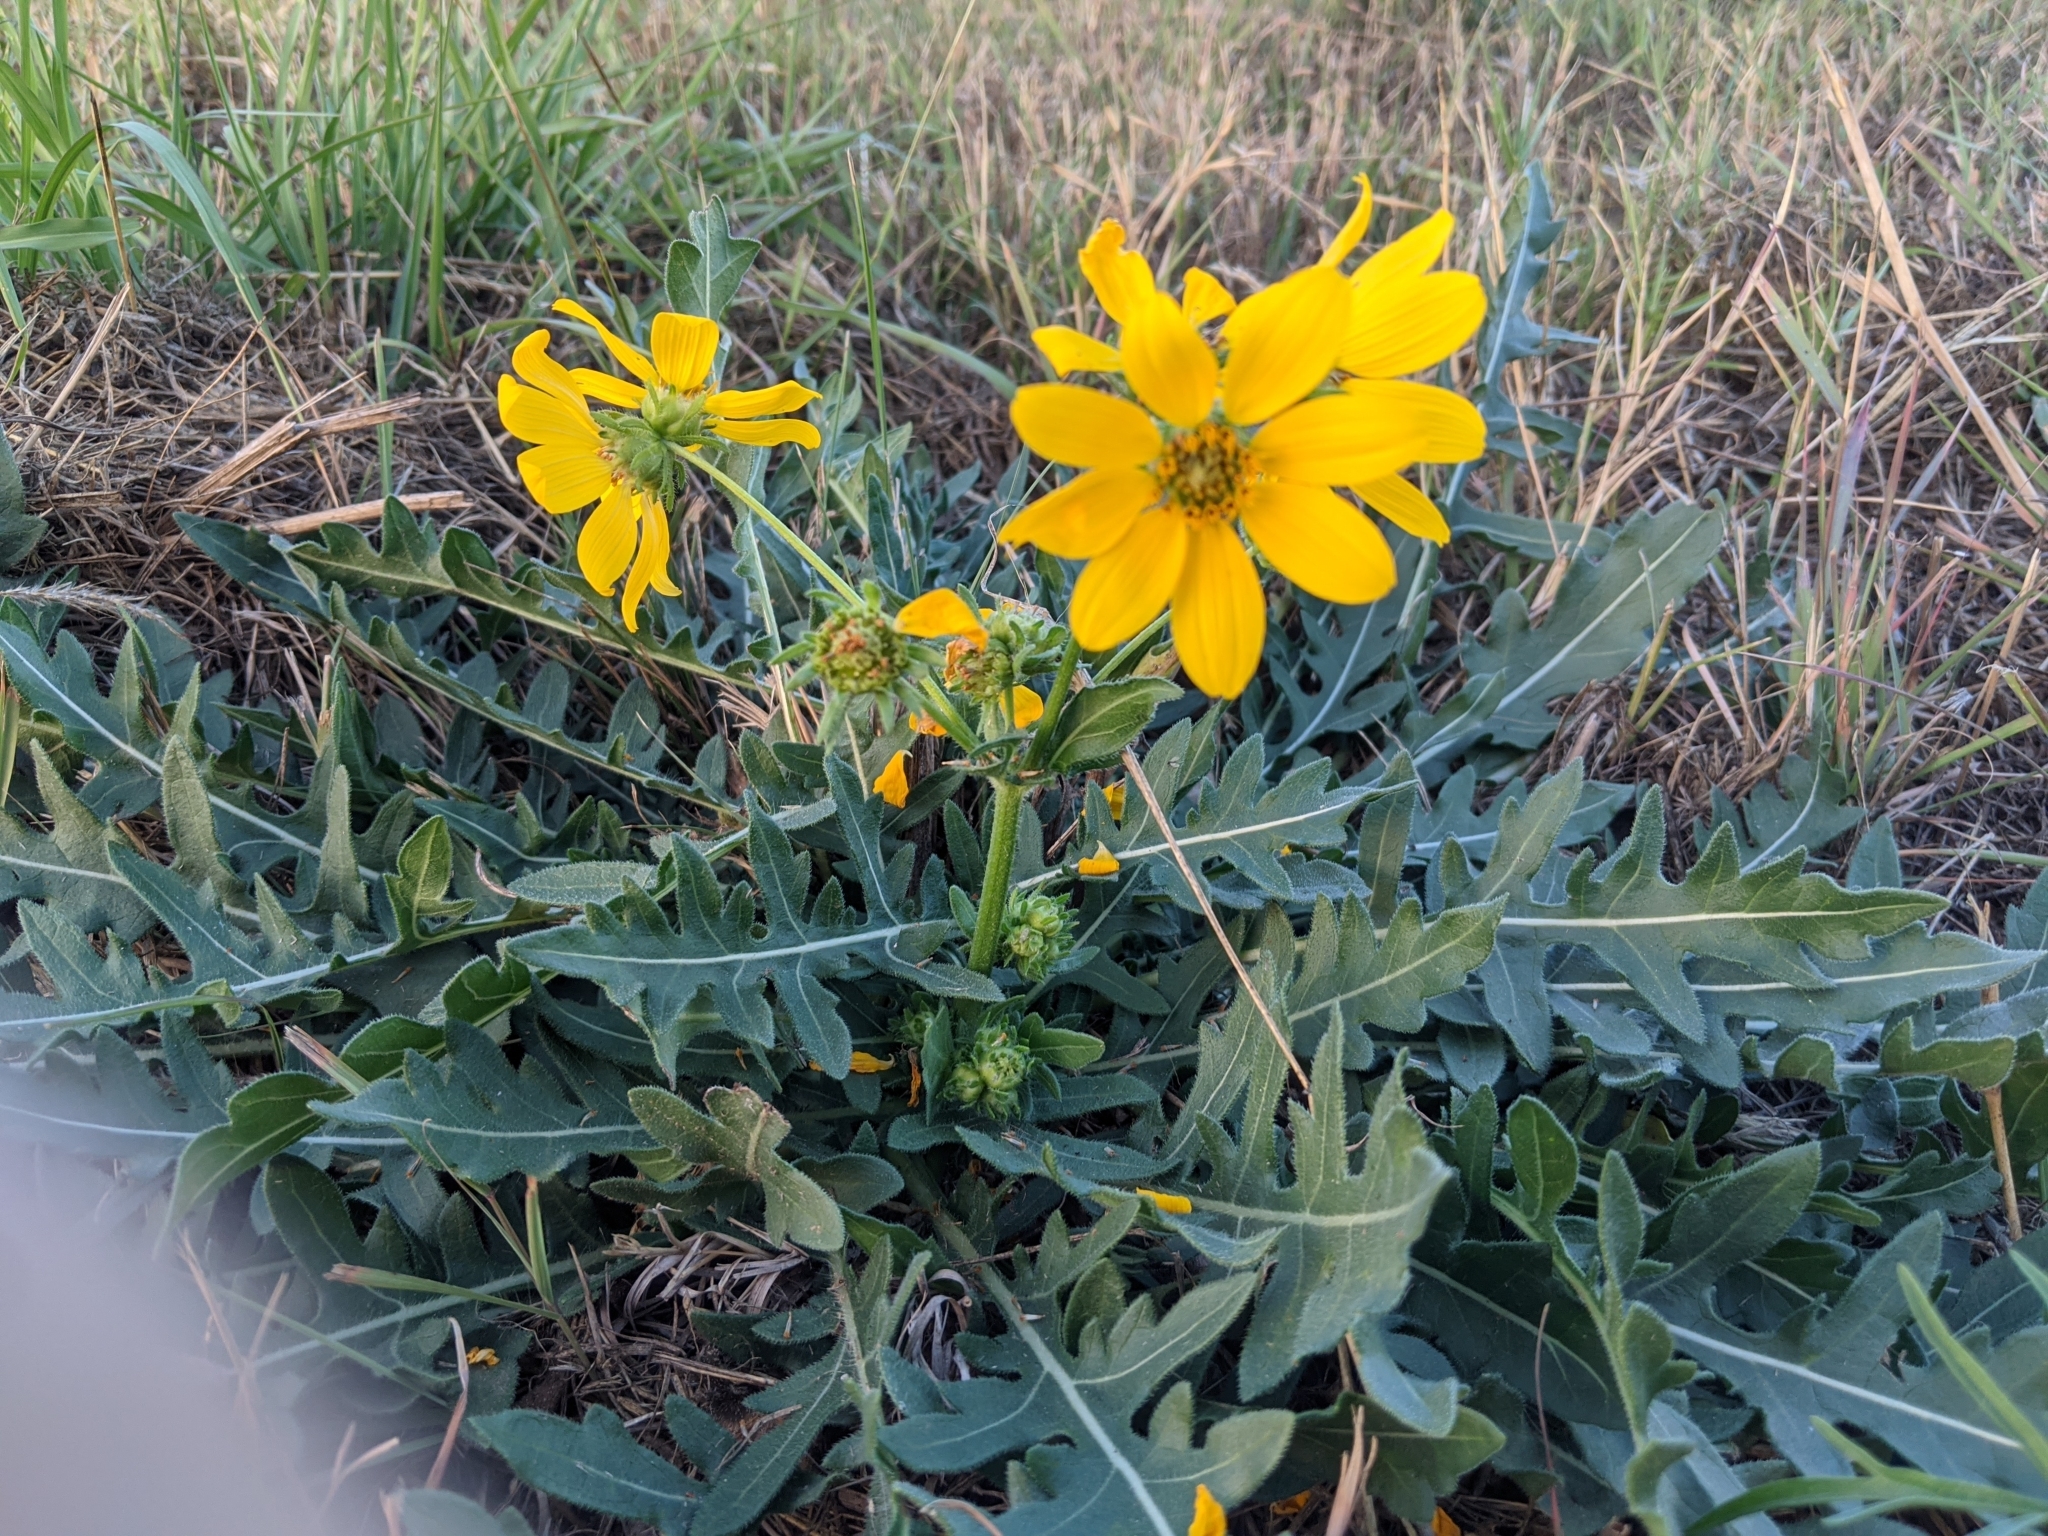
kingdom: Plantae
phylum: Tracheophyta
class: Magnoliopsida
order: Asterales
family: Asteraceae
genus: Engelmannia
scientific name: Engelmannia peristenia
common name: Engelmann's daisy
